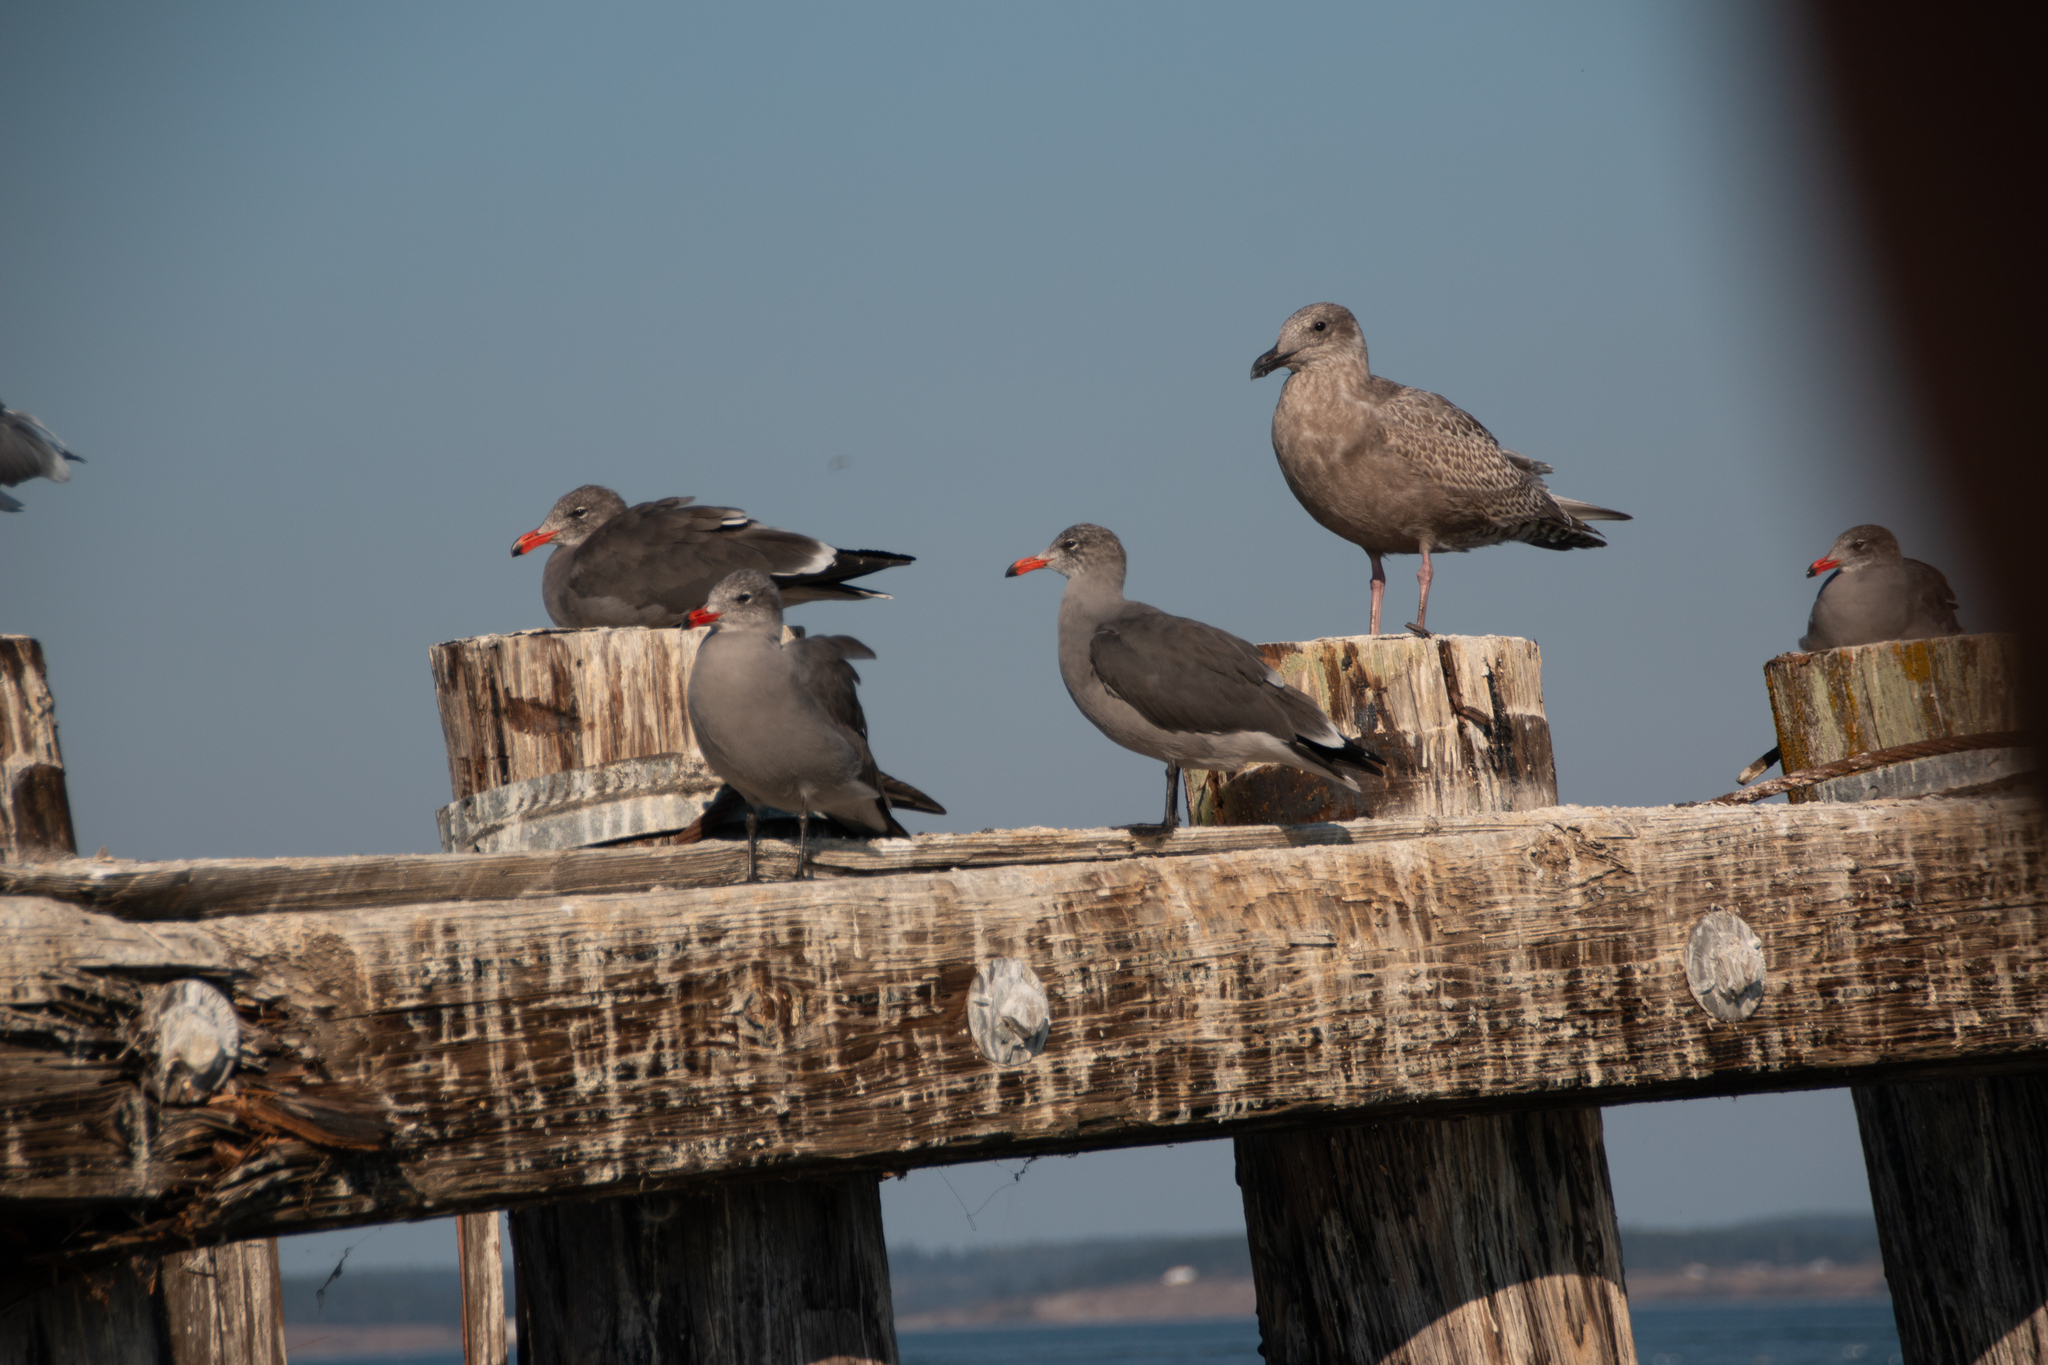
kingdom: Animalia
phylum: Chordata
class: Aves
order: Charadriiformes
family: Laridae
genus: Larus
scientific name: Larus heermanni
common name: Heermann's gull
